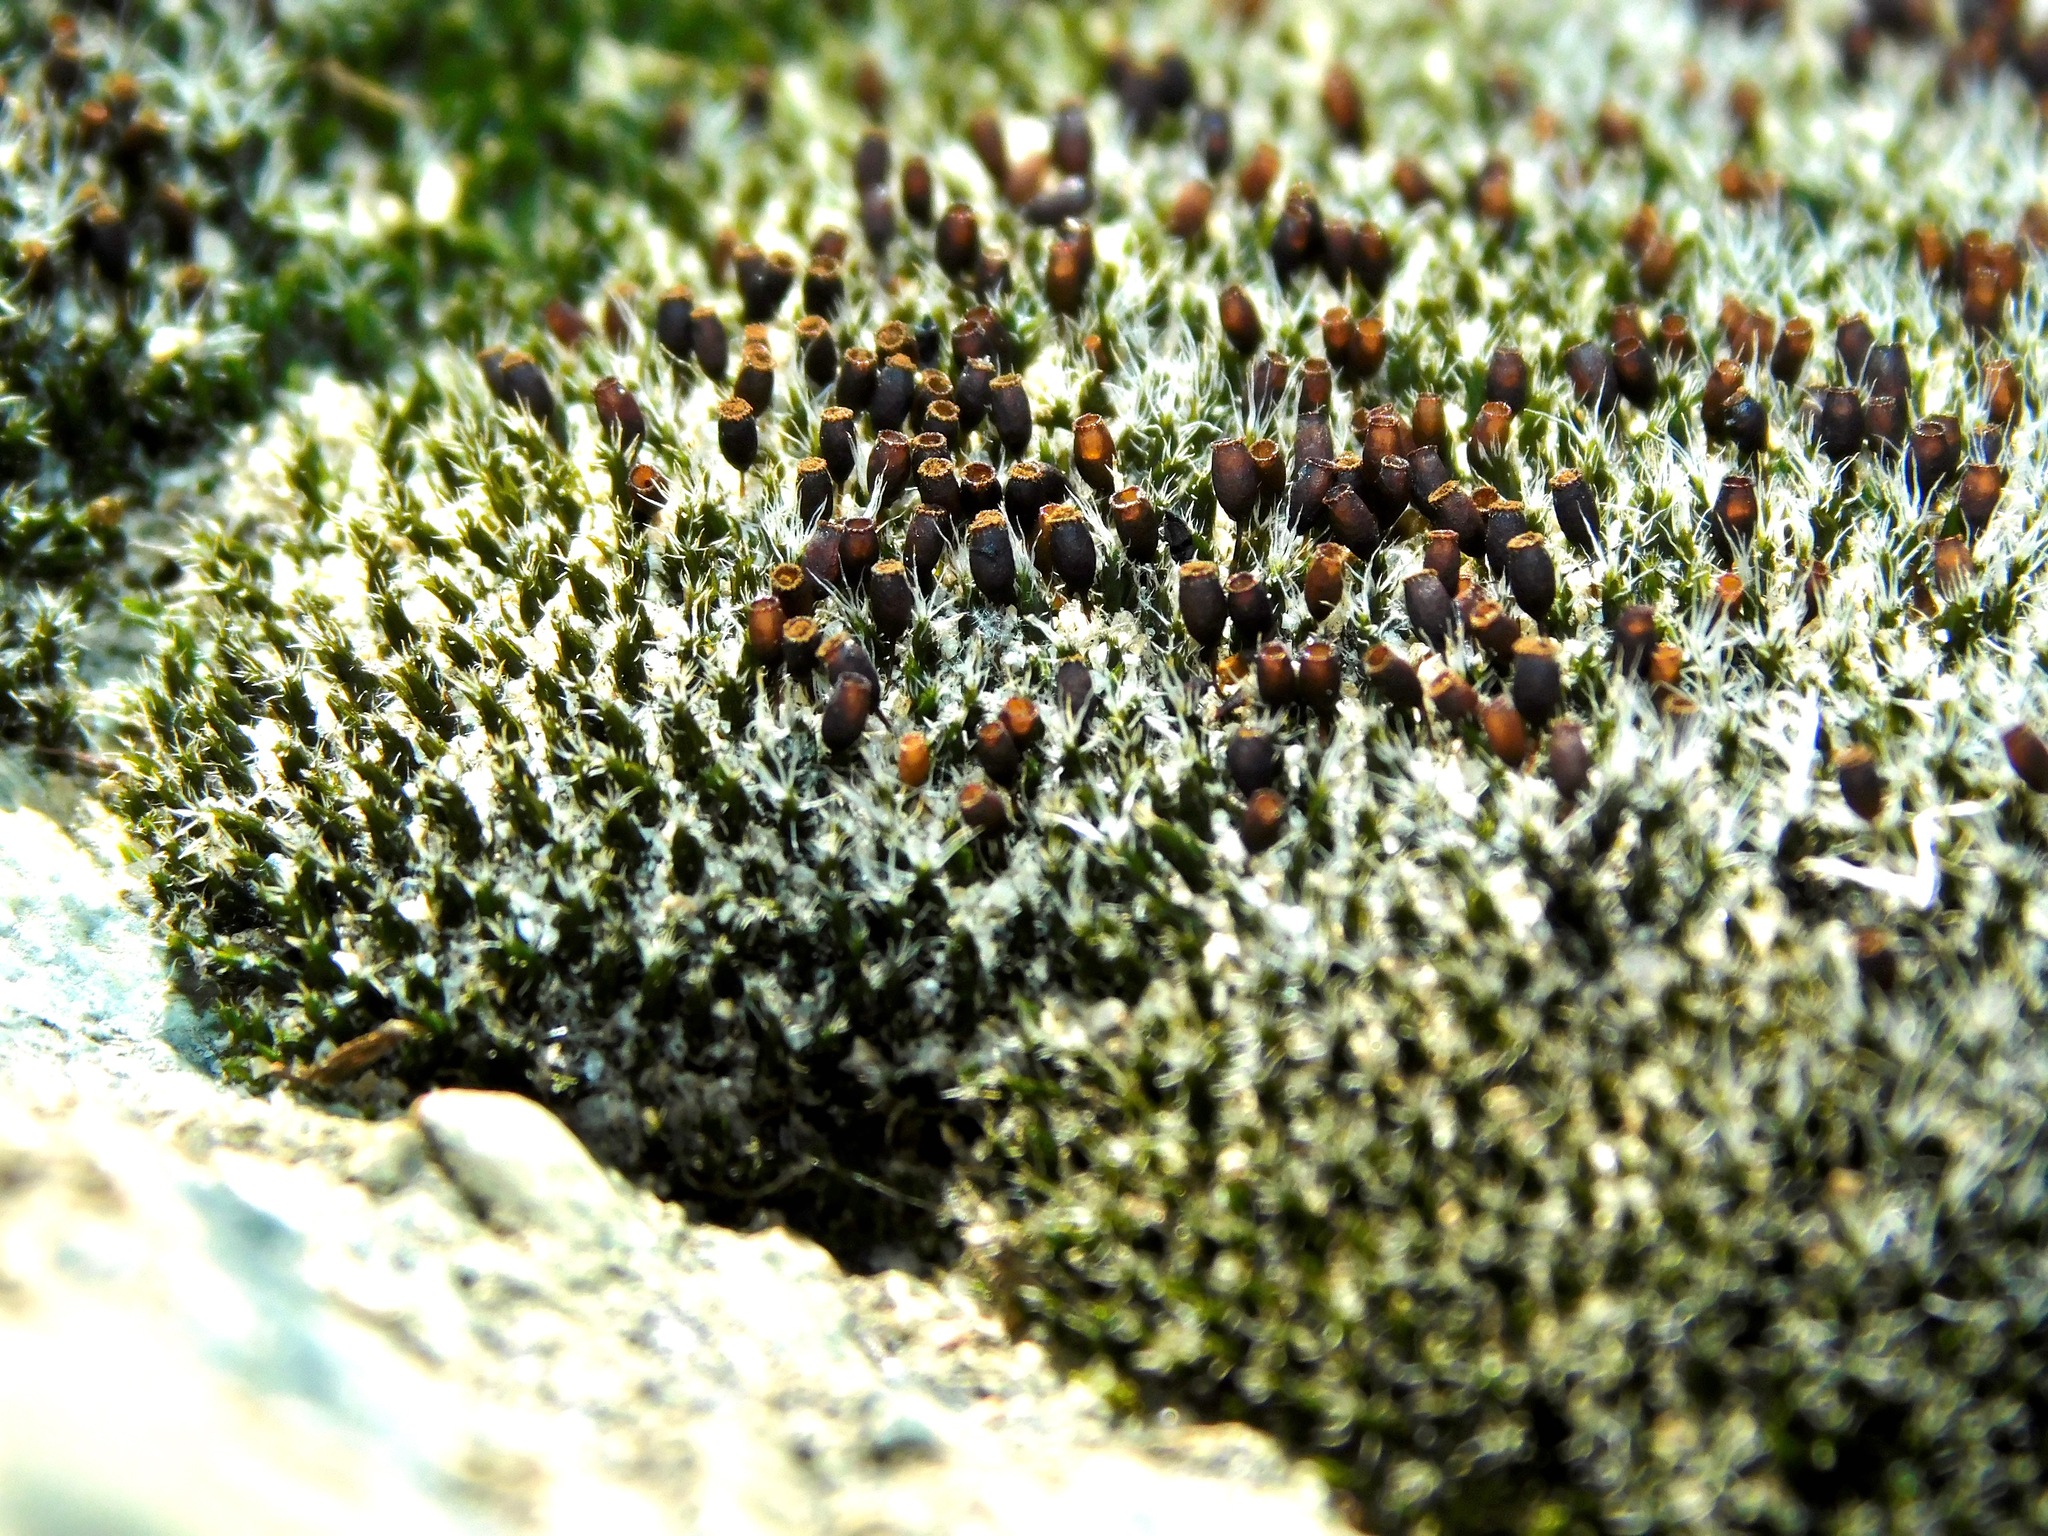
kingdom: Plantae
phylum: Bryophyta
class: Bryopsida
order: Grimmiales
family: Grimmiaceae
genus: Grimmia
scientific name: Grimmia laevigata
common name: Hoary grimmia
